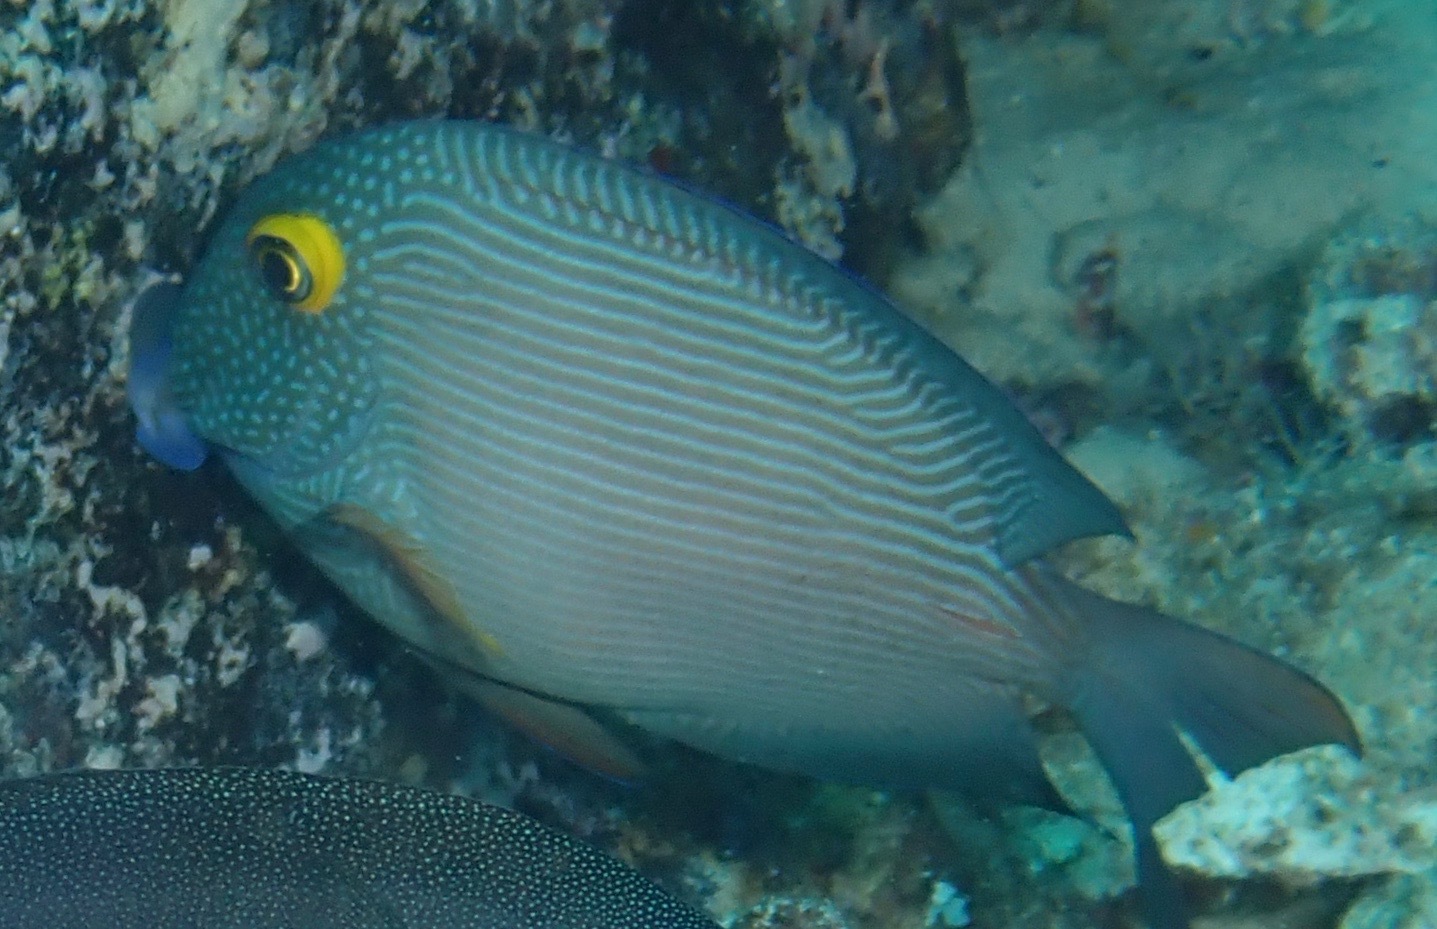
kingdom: Animalia
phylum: Chordata
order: Perciformes
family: Acanthuridae
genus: Ctenochaetus
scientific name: Ctenochaetus strigosus
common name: Bristletoothed surgeonfish
